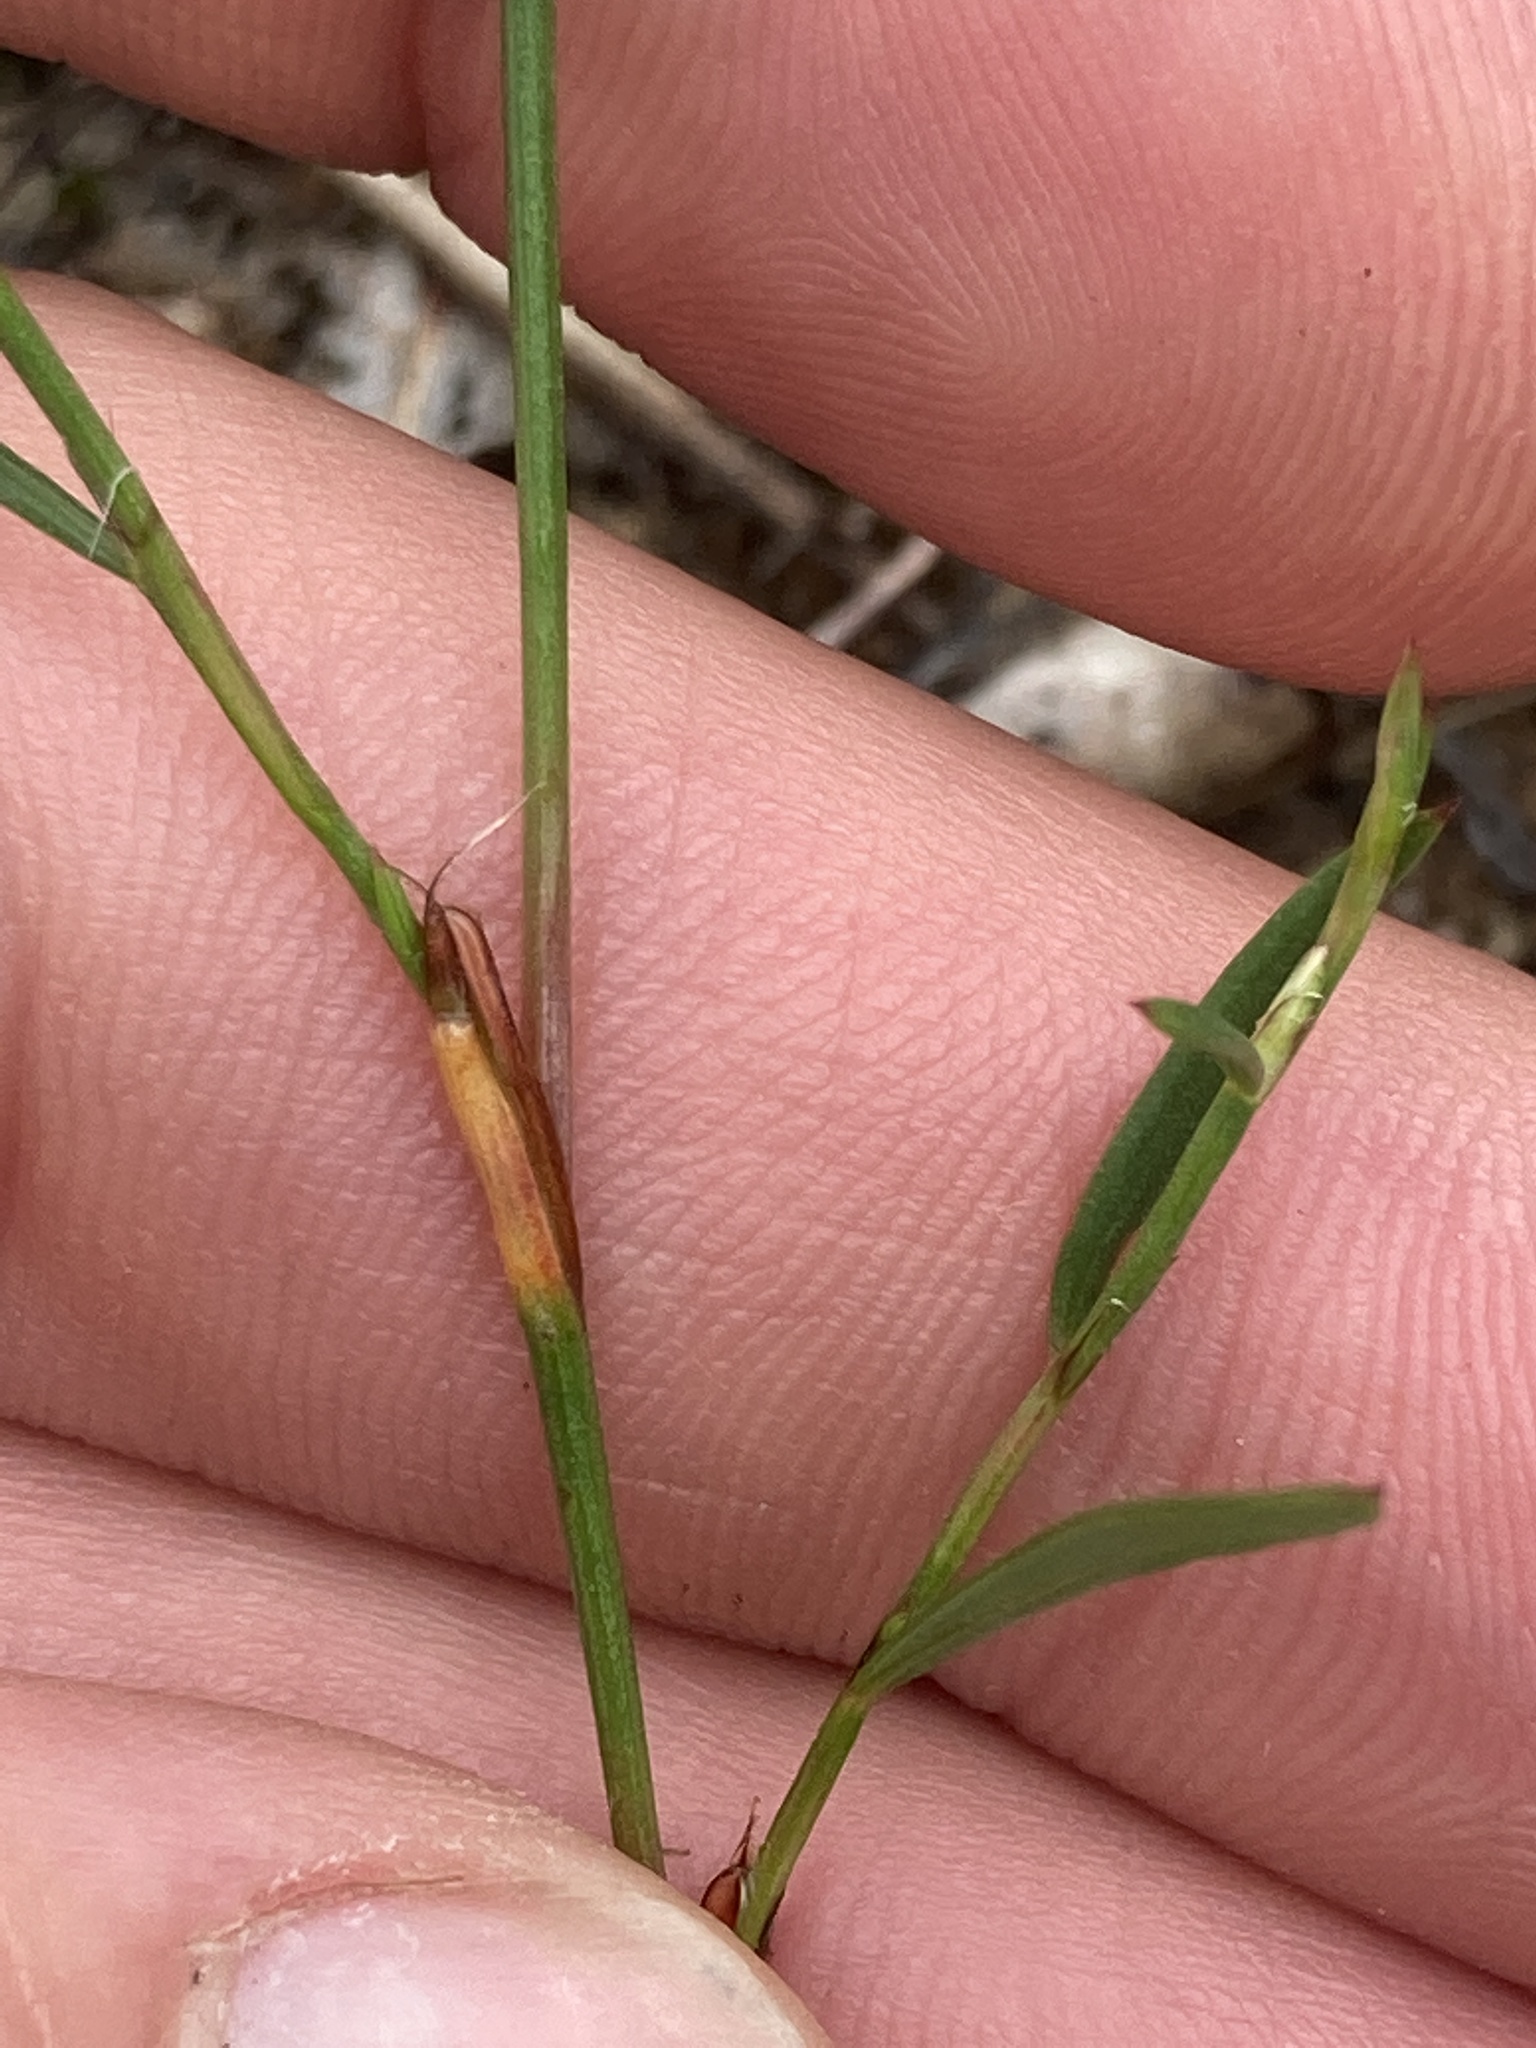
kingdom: Plantae
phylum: Tracheophyta
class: Magnoliopsida
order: Caryophyllales
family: Polygonaceae
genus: Persicaria
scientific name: Persicaria punctata
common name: Dotted smartweed
